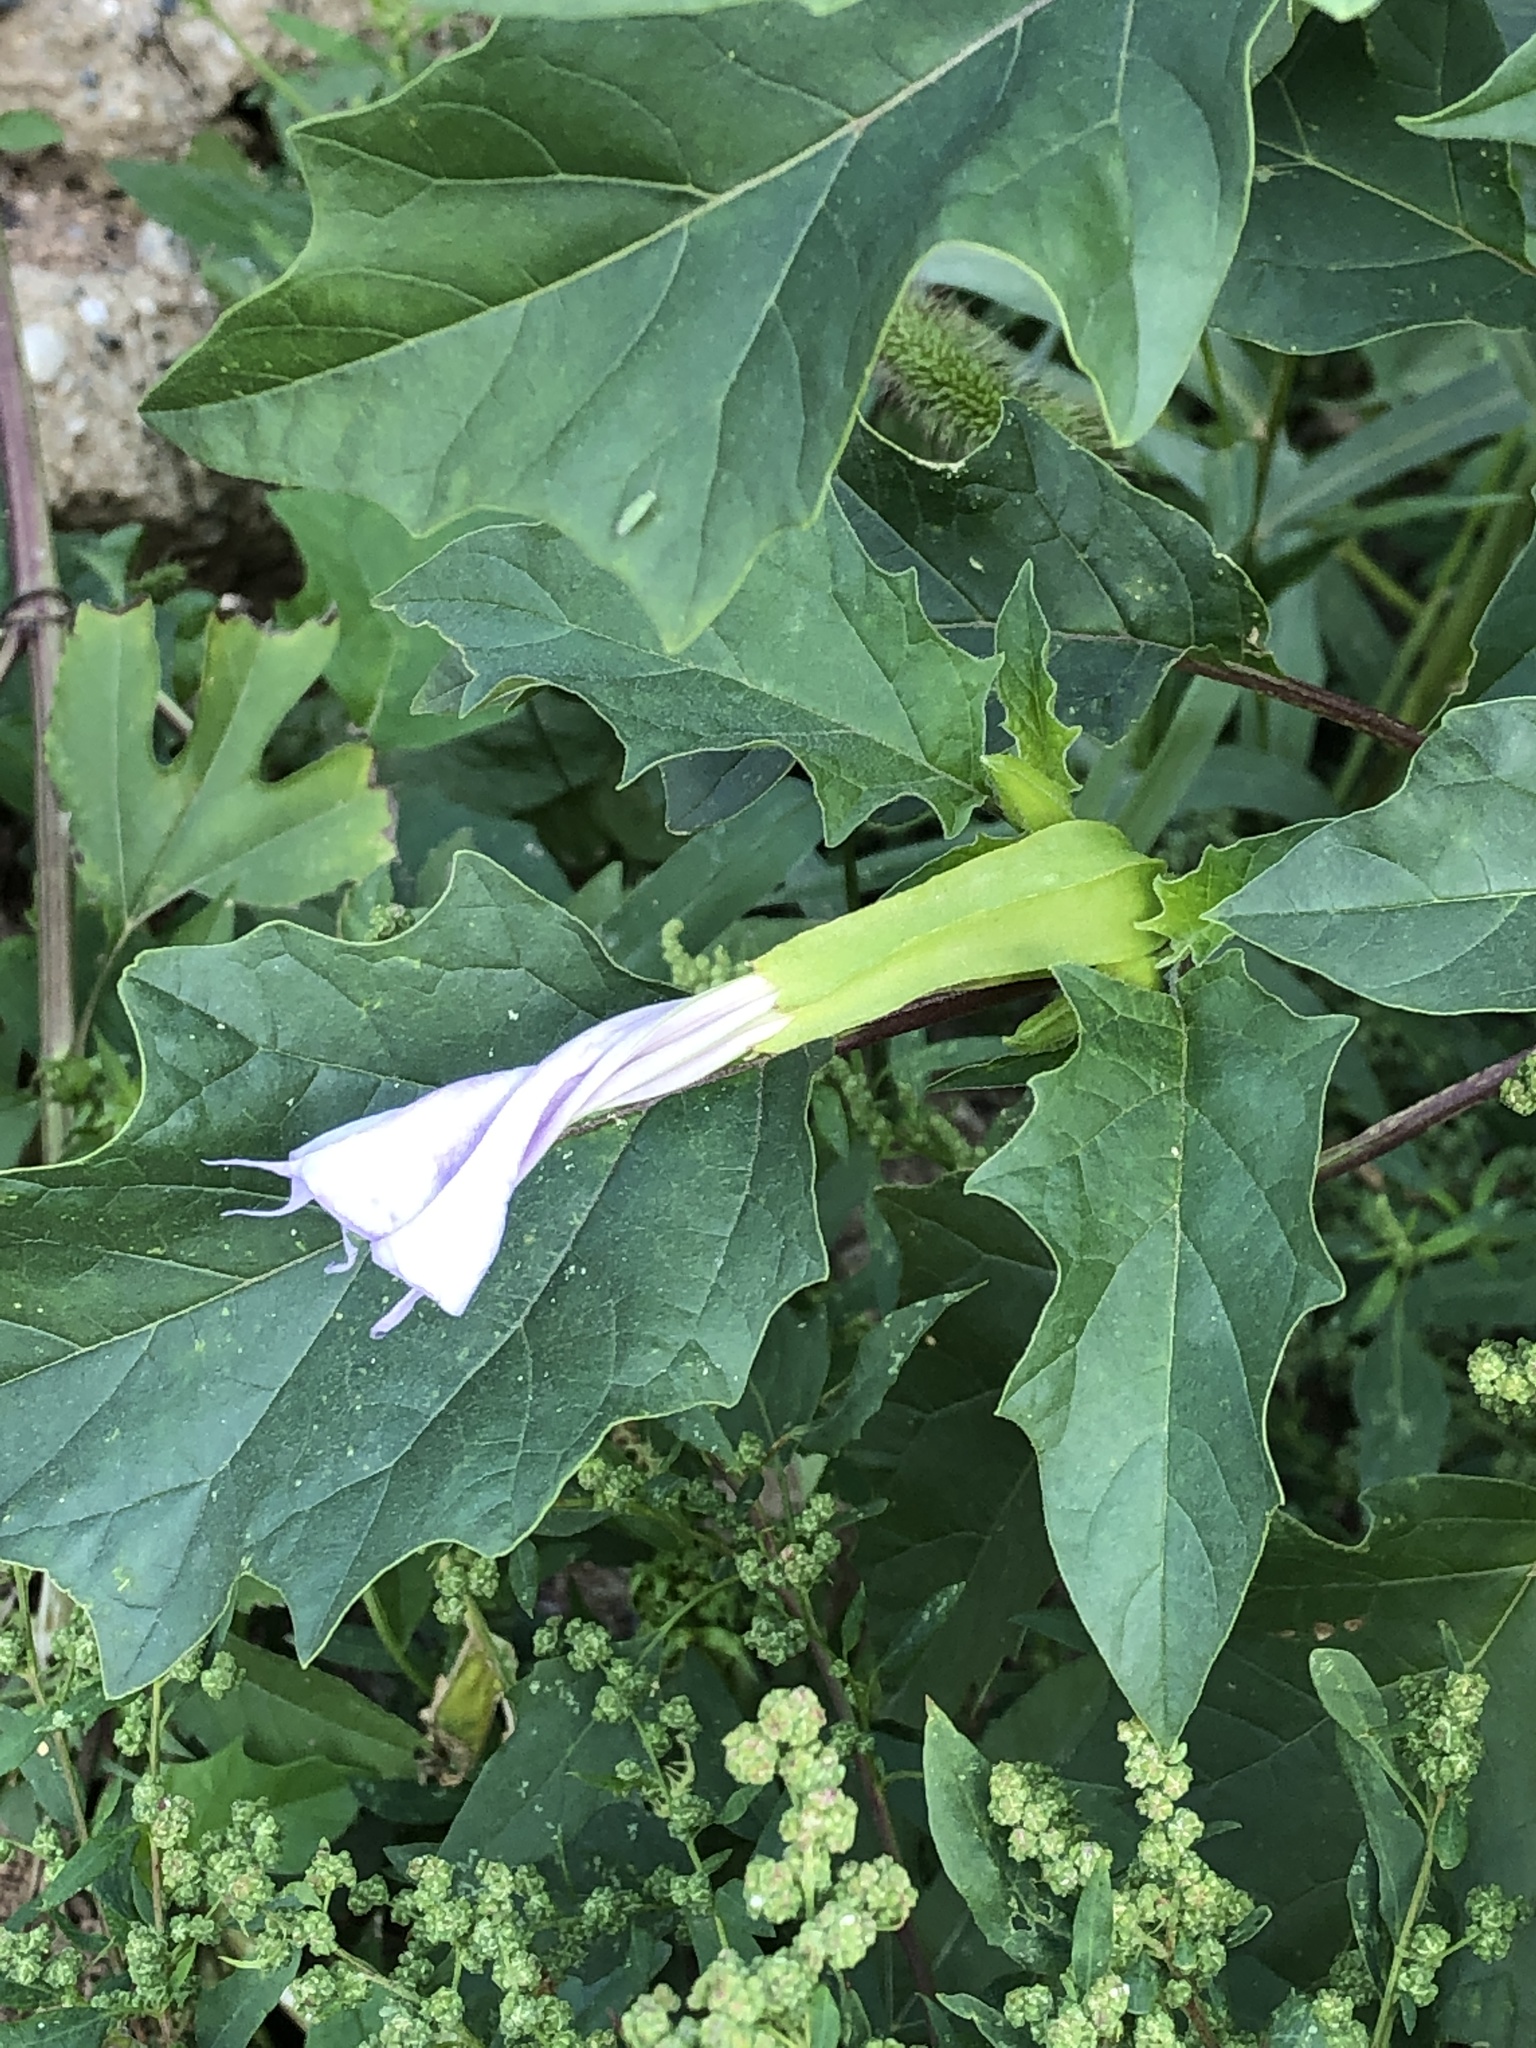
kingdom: Plantae
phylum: Tracheophyta
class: Magnoliopsida
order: Solanales
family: Solanaceae
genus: Datura
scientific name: Datura stramonium
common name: Thorn-apple
